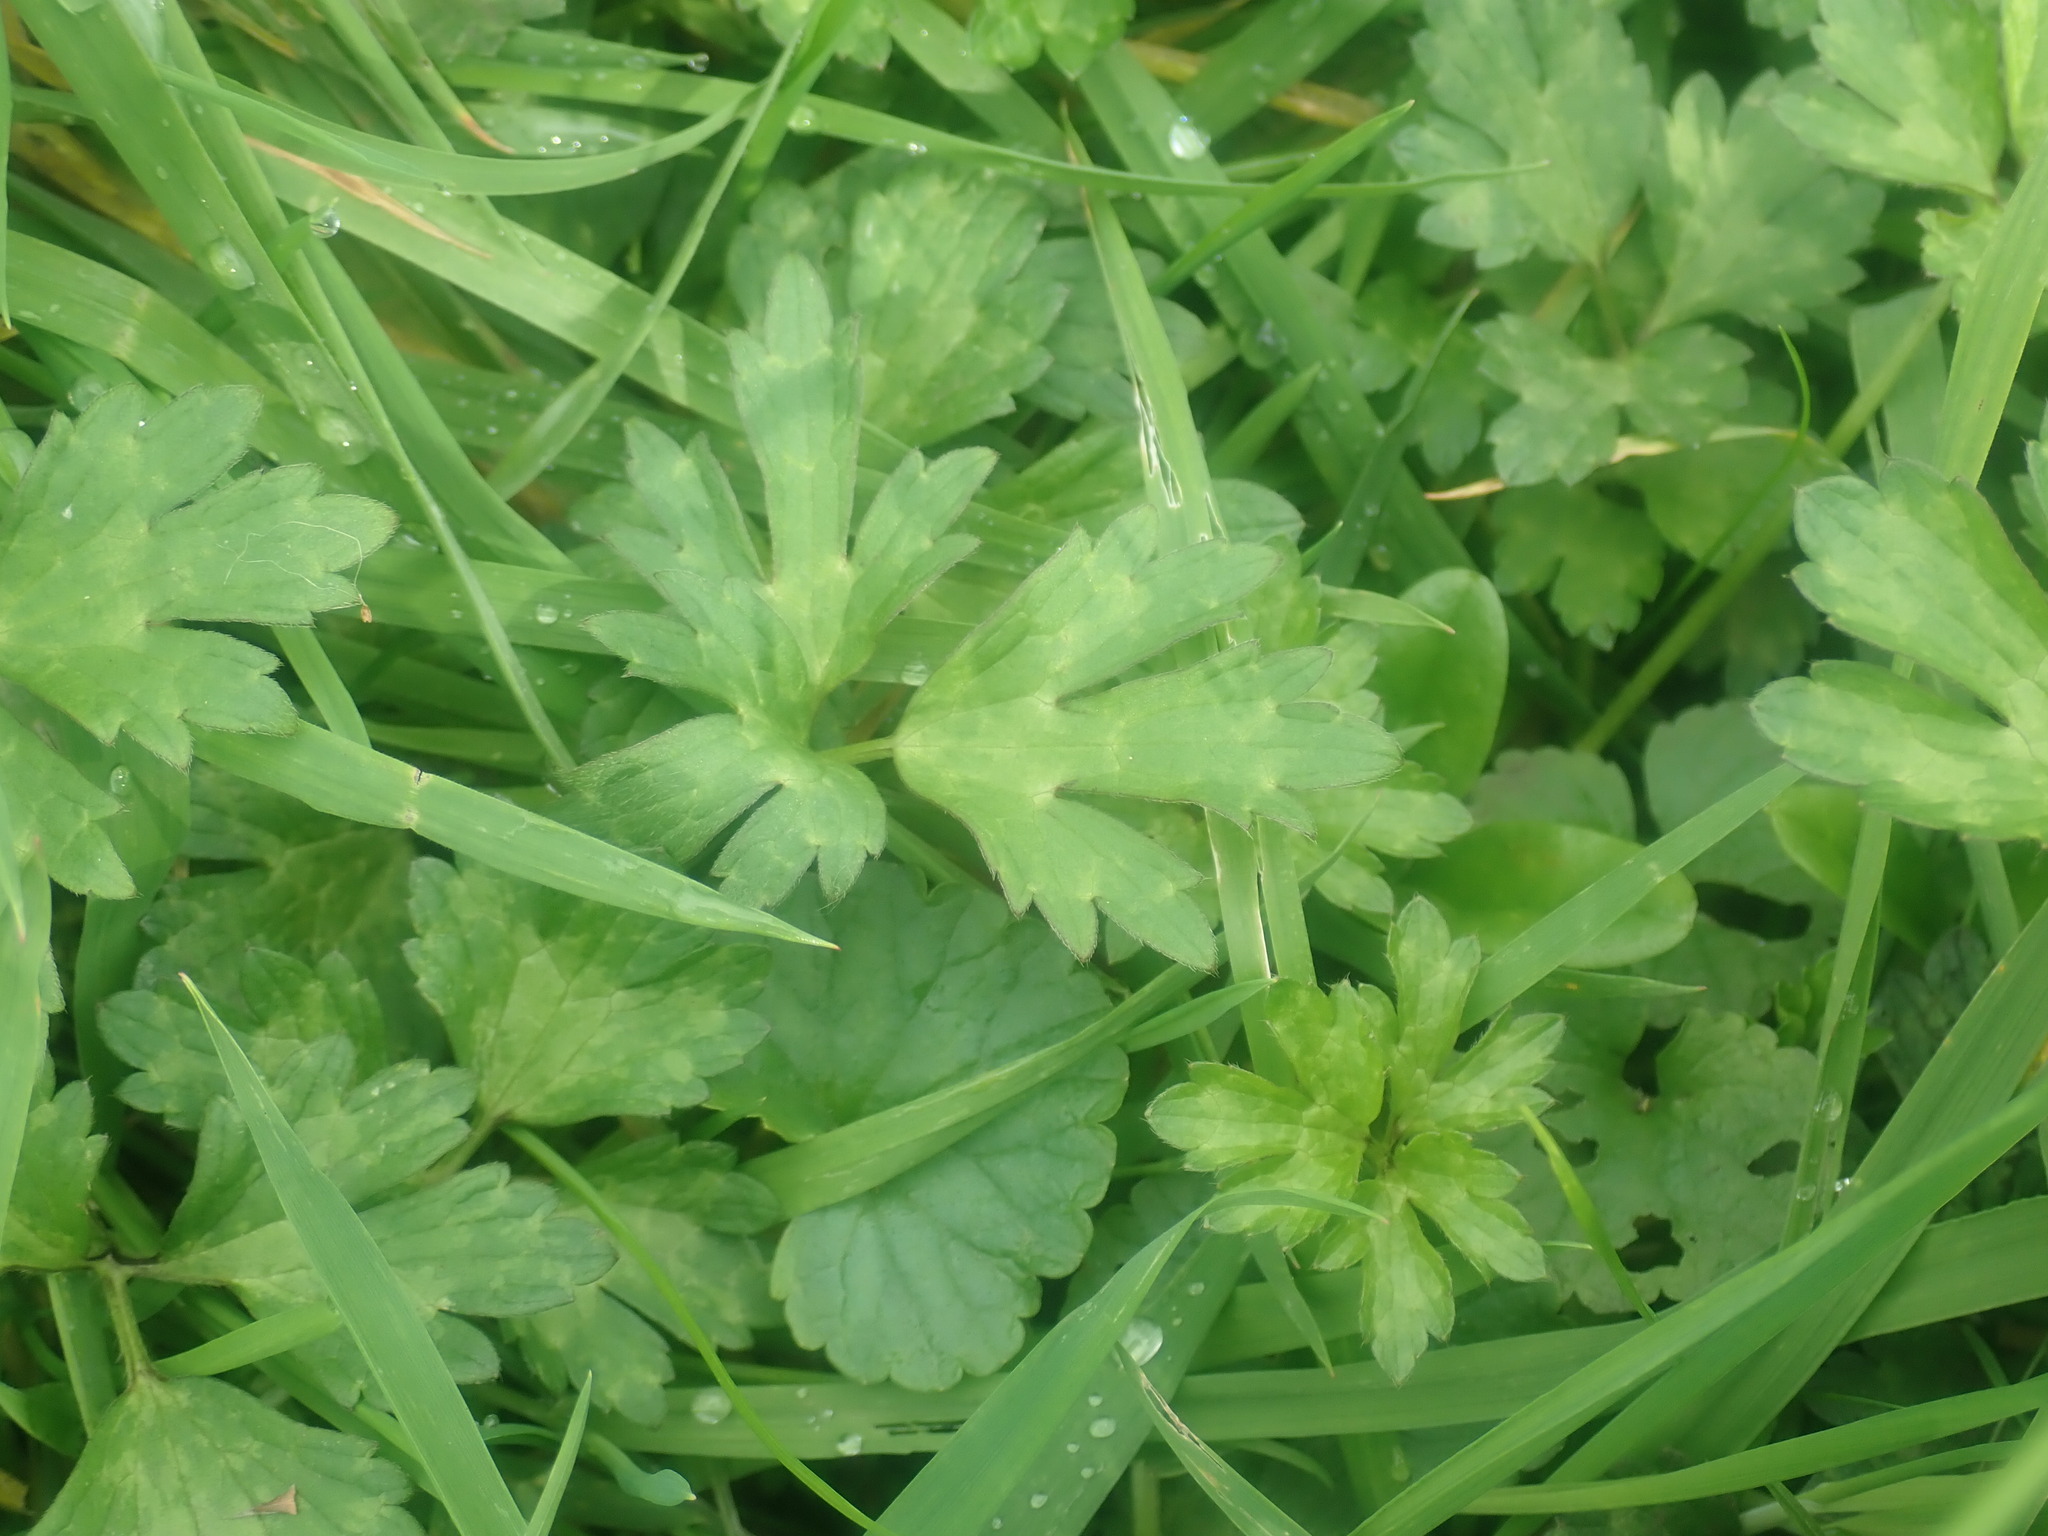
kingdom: Plantae
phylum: Tracheophyta
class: Magnoliopsida
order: Ranunculales
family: Ranunculaceae
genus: Ranunculus
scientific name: Ranunculus repens
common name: Creeping buttercup
